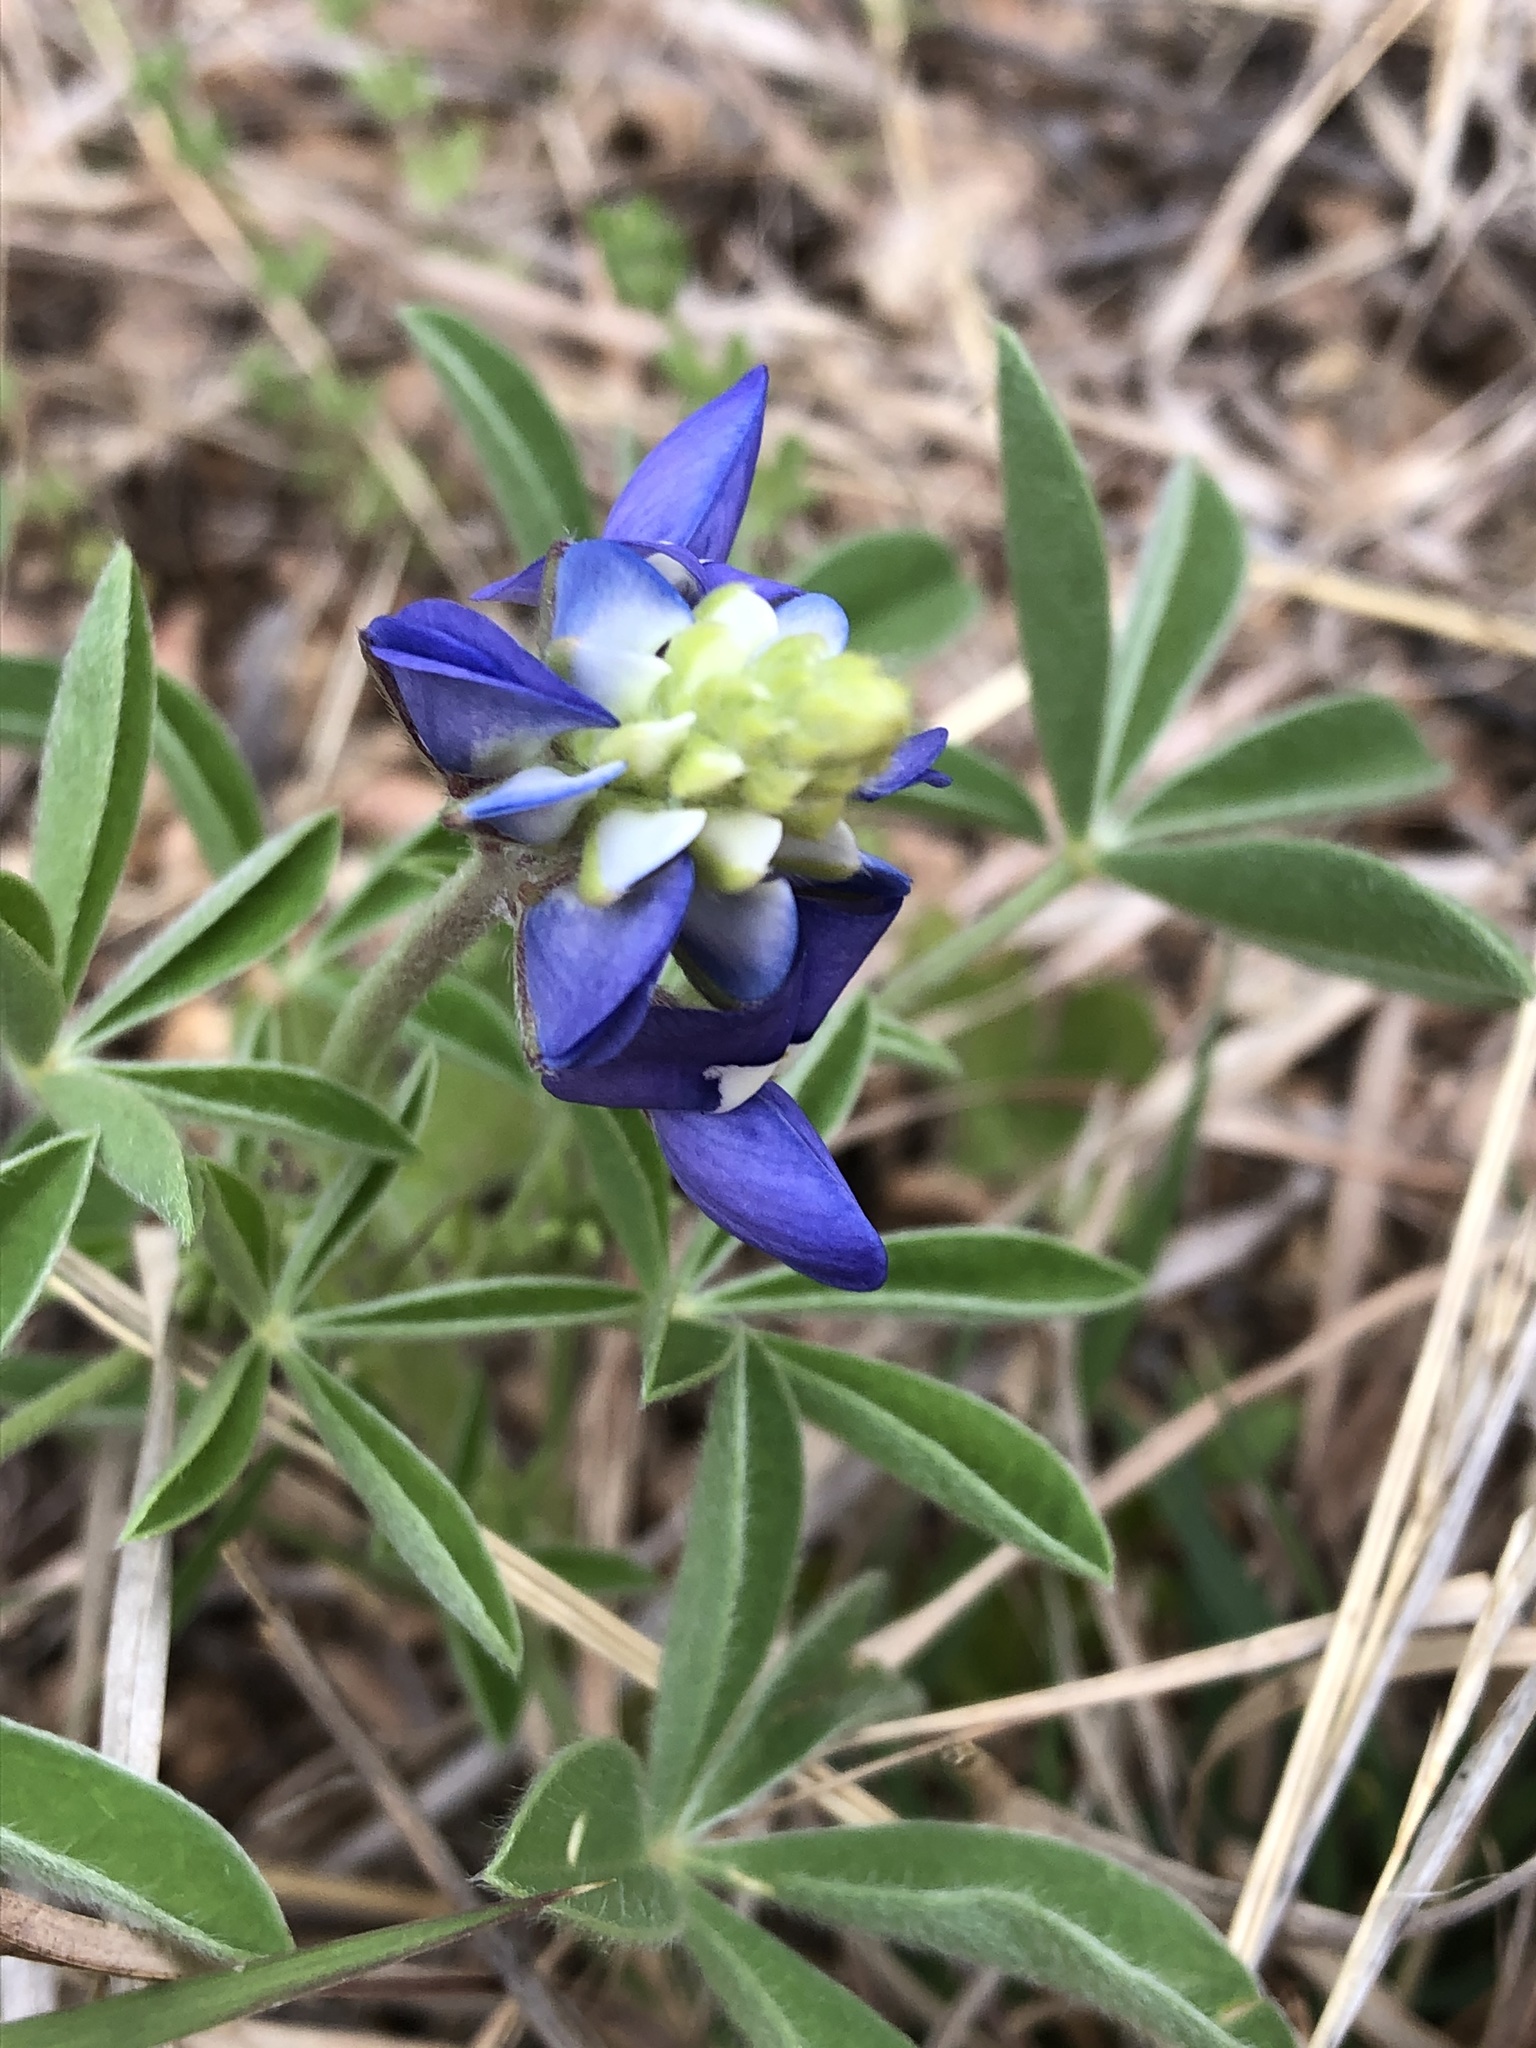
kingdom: Plantae
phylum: Tracheophyta
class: Magnoliopsida
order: Fabales
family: Fabaceae
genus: Lupinus
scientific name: Lupinus texensis
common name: Texas bluebonnet
